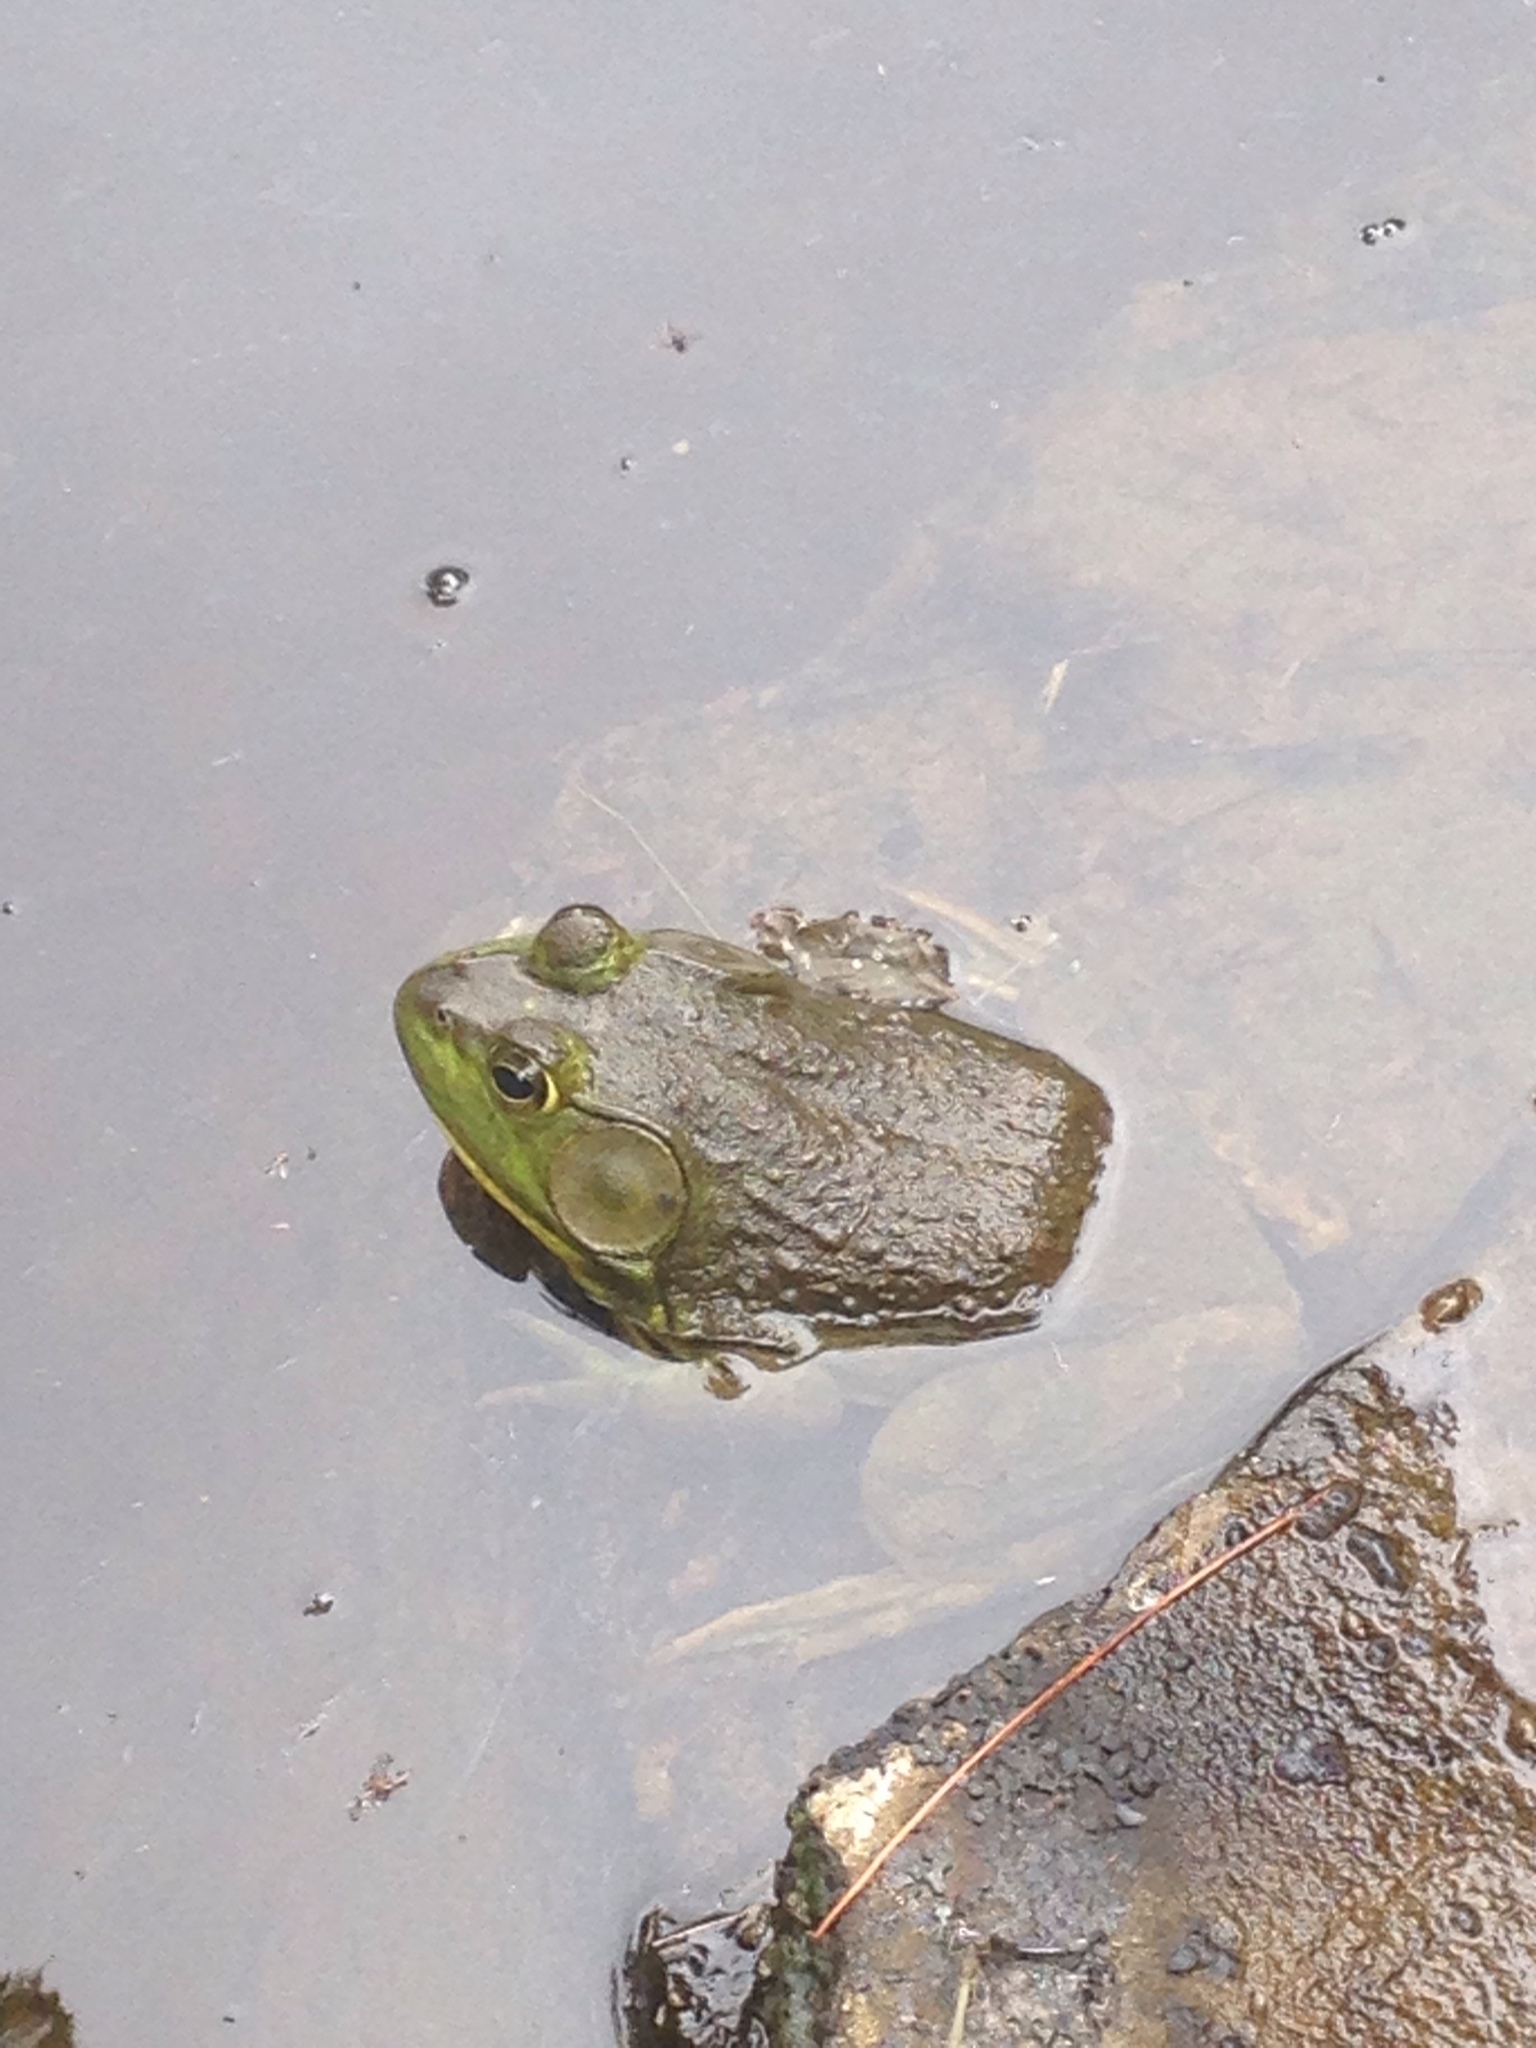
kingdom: Animalia
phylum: Chordata
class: Amphibia
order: Anura
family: Ranidae
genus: Lithobates
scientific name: Lithobates catesbeianus
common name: American bullfrog
